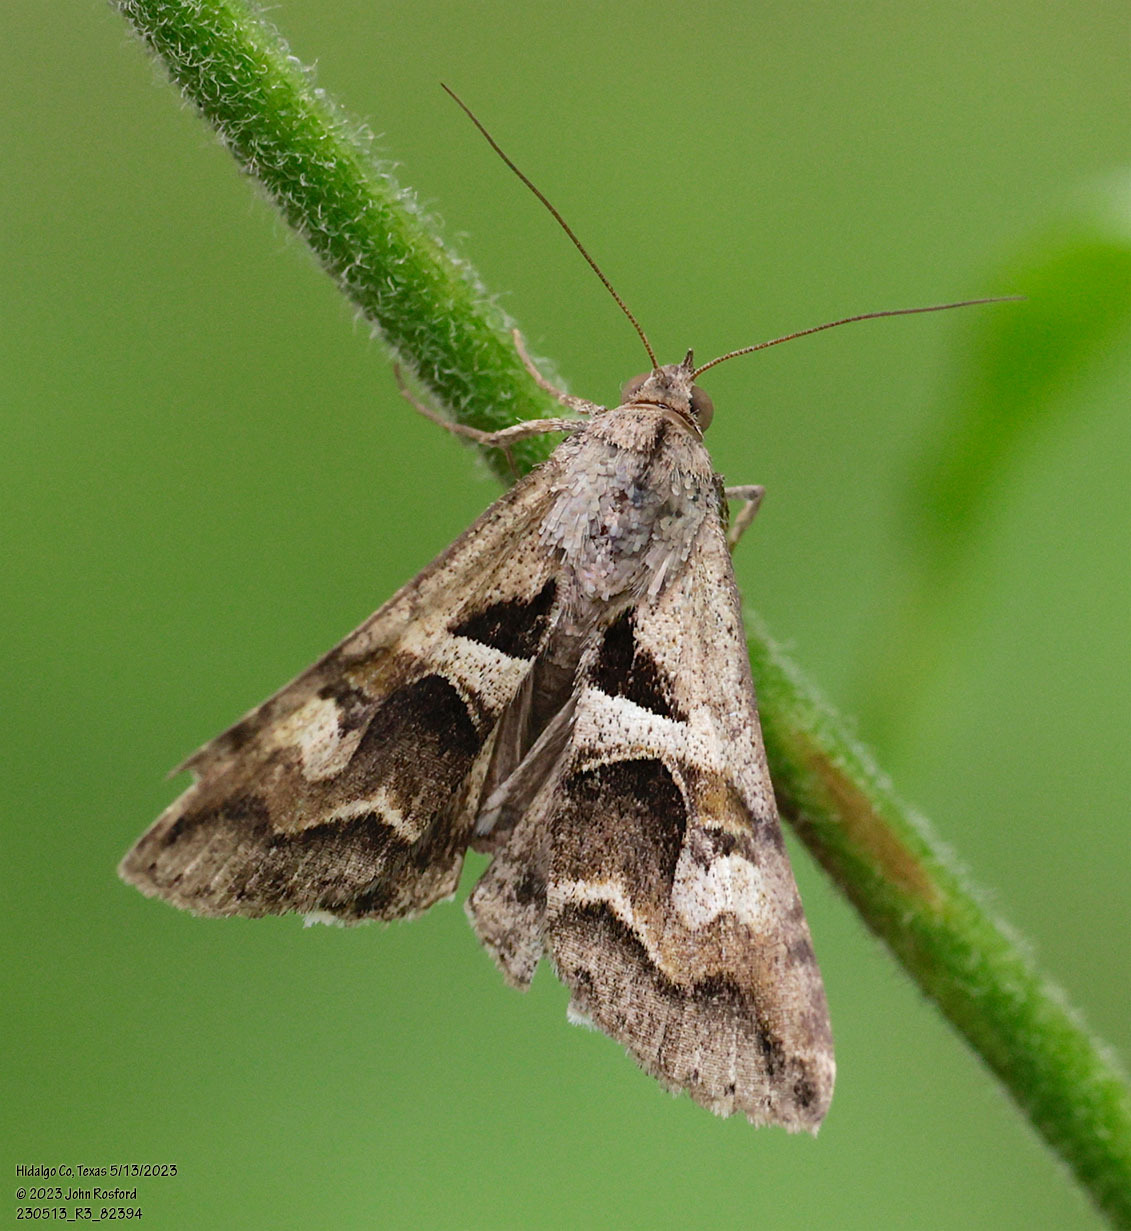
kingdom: Animalia
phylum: Arthropoda
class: Insecta
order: Lepidoptera
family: Erebidae
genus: Melipotis
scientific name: Melipotis cellaris
